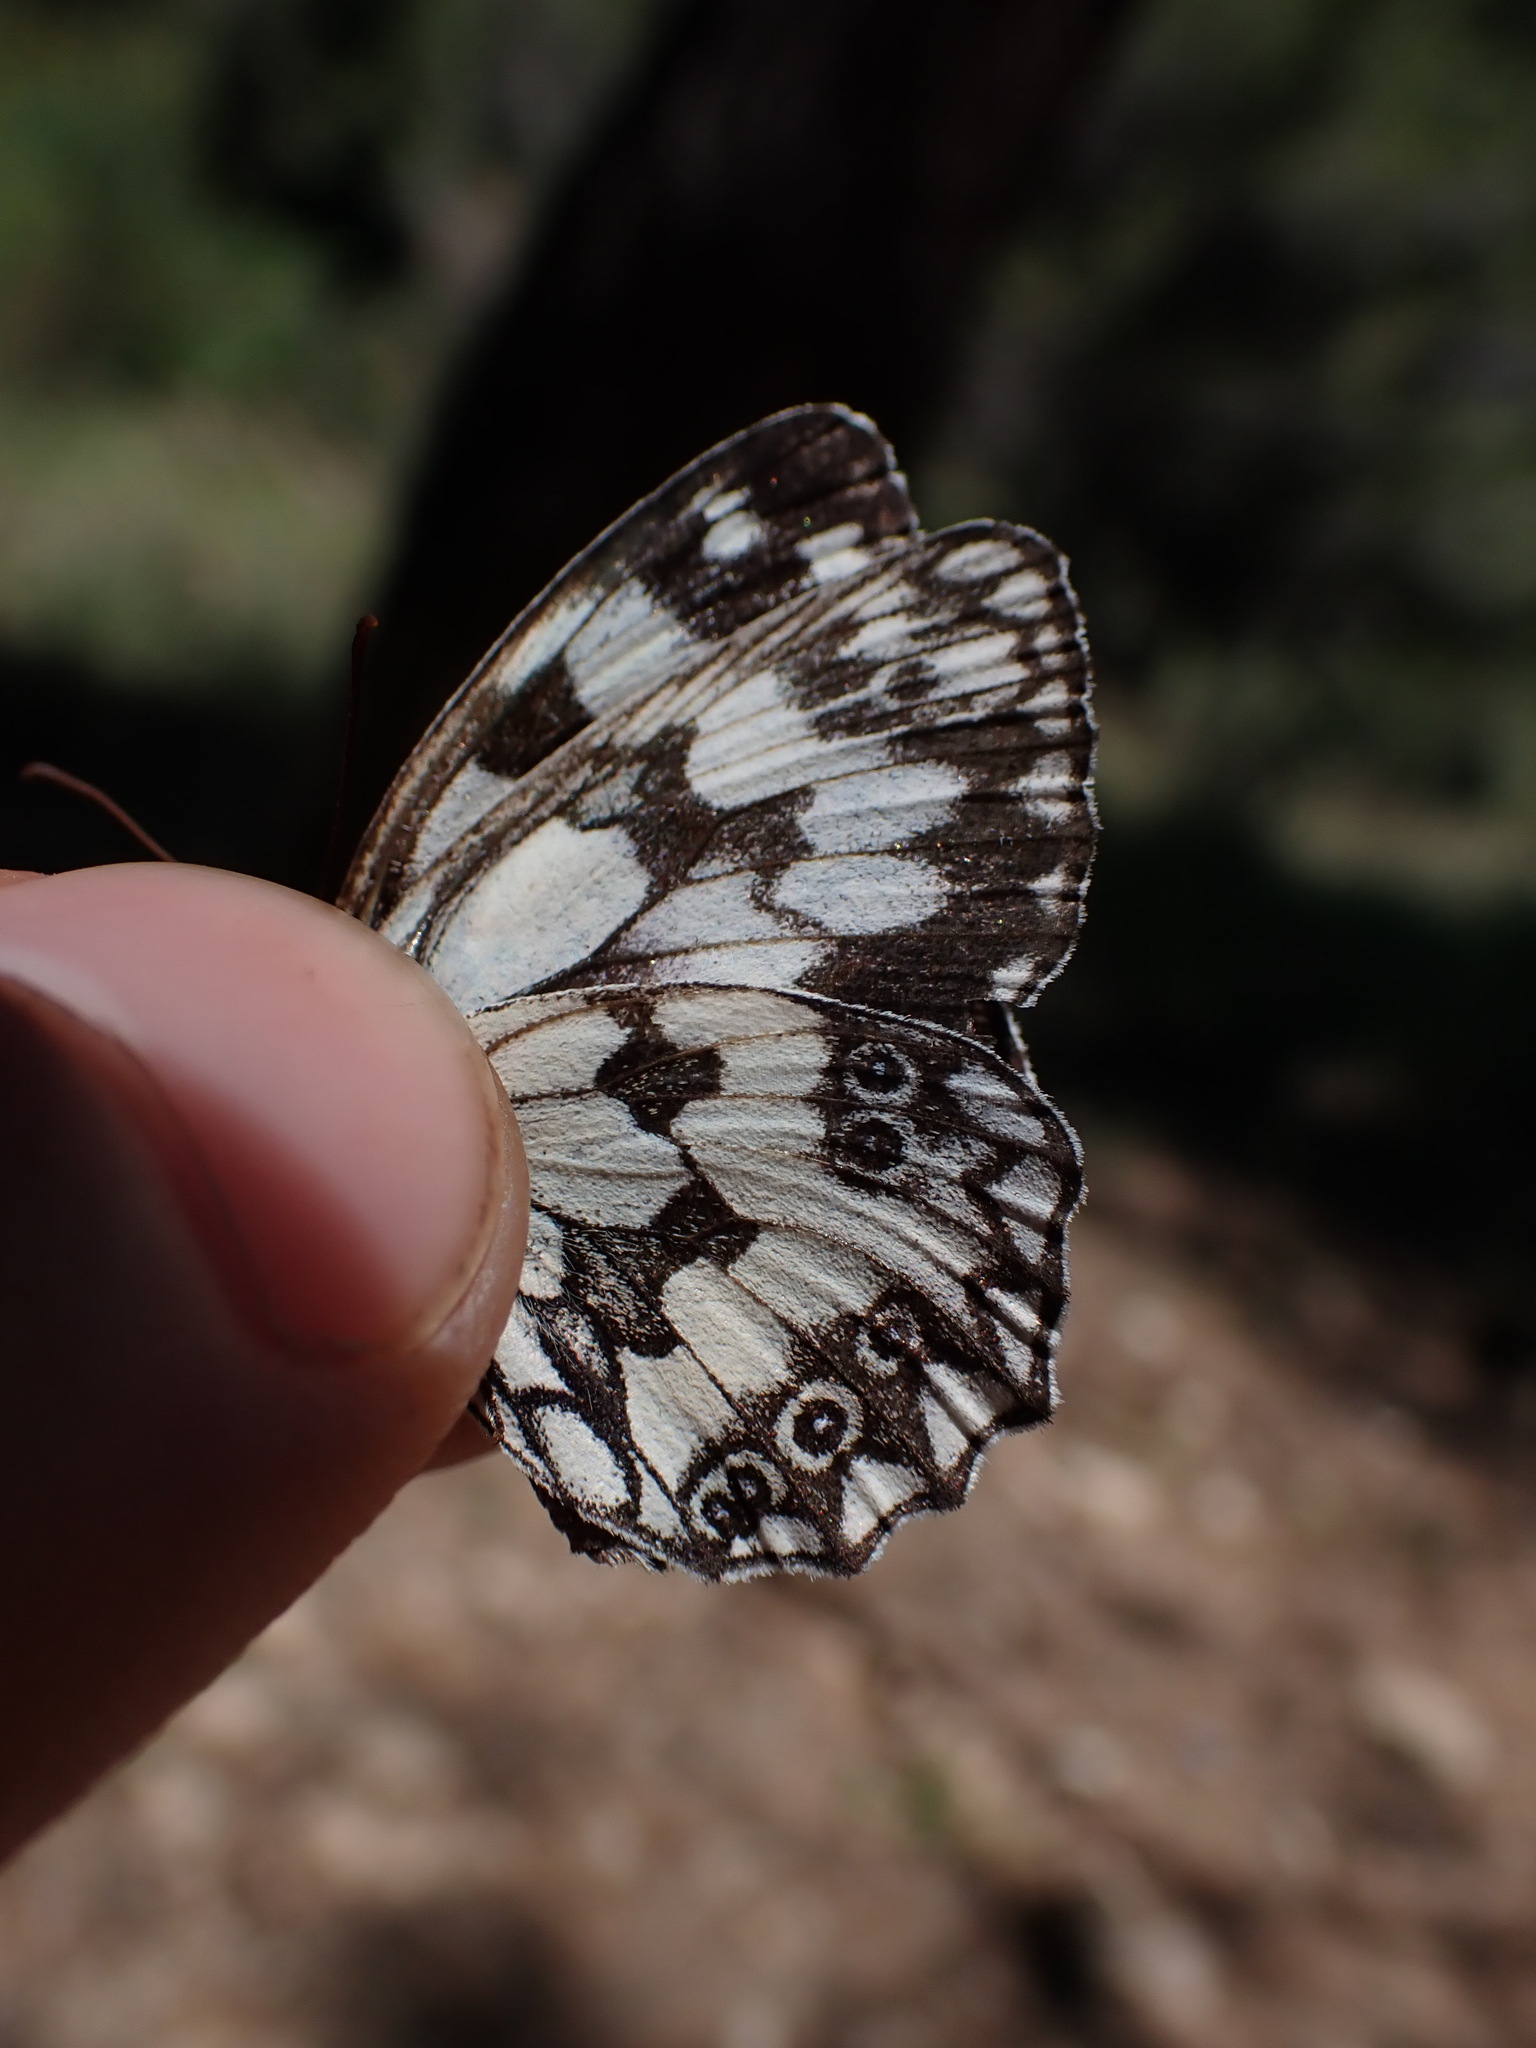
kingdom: Animalia
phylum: Arthropoda
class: Insecta
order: Lepidoptera
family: Nymphalidae
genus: Melanargia
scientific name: Melanargia galathea
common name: Marbled white
